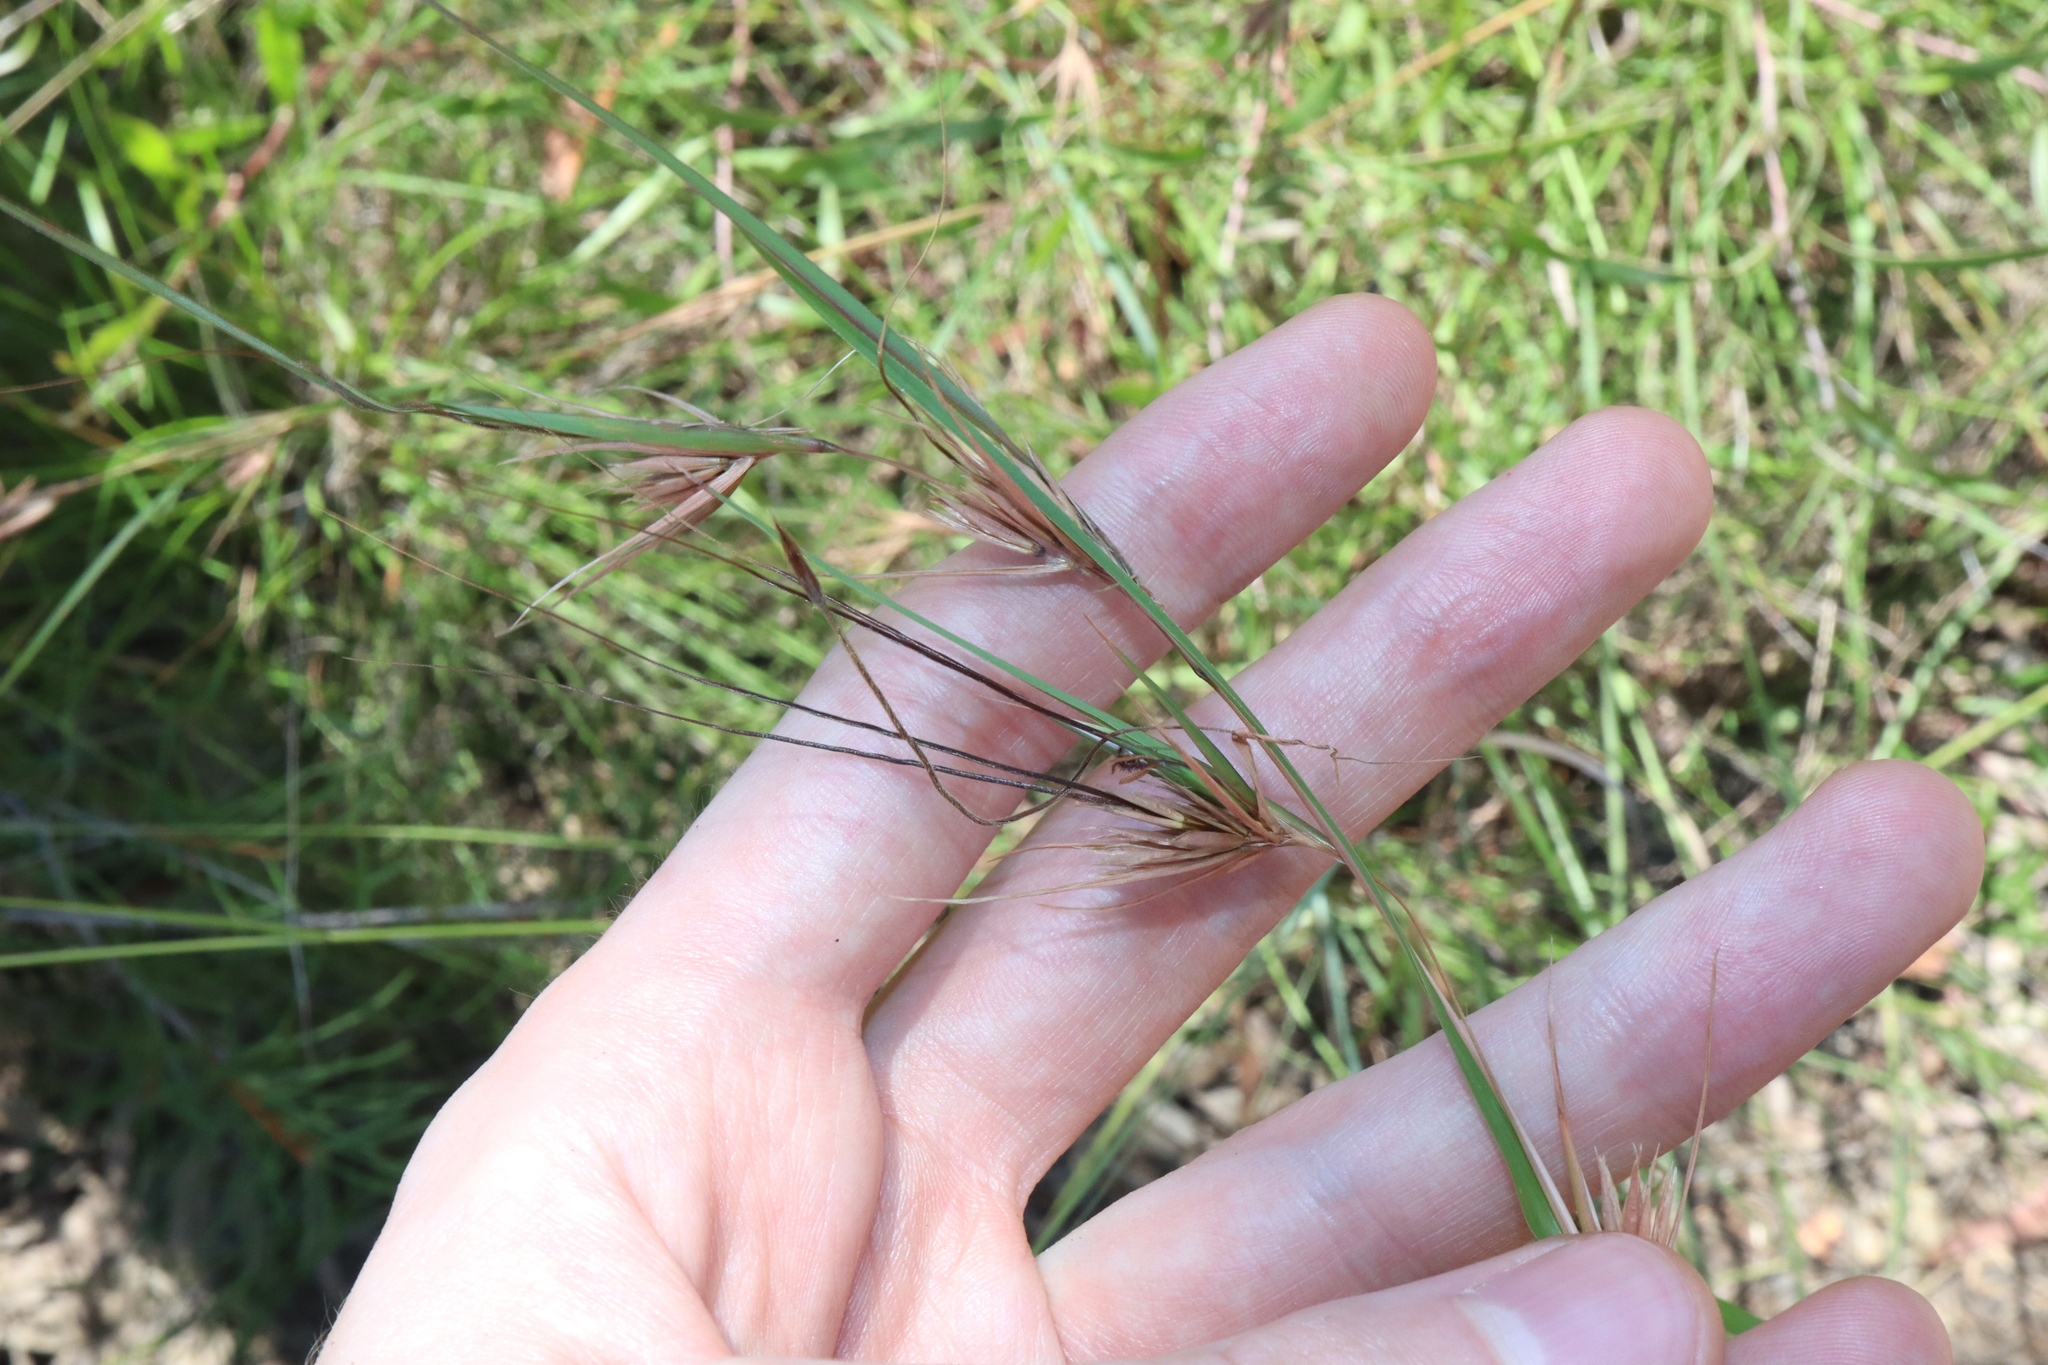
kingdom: Plantae
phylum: Tracheophyta
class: Liliopsida
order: Poales
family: Poaceae
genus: Themeda
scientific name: Themeda triandra
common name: Kangaroo grass
